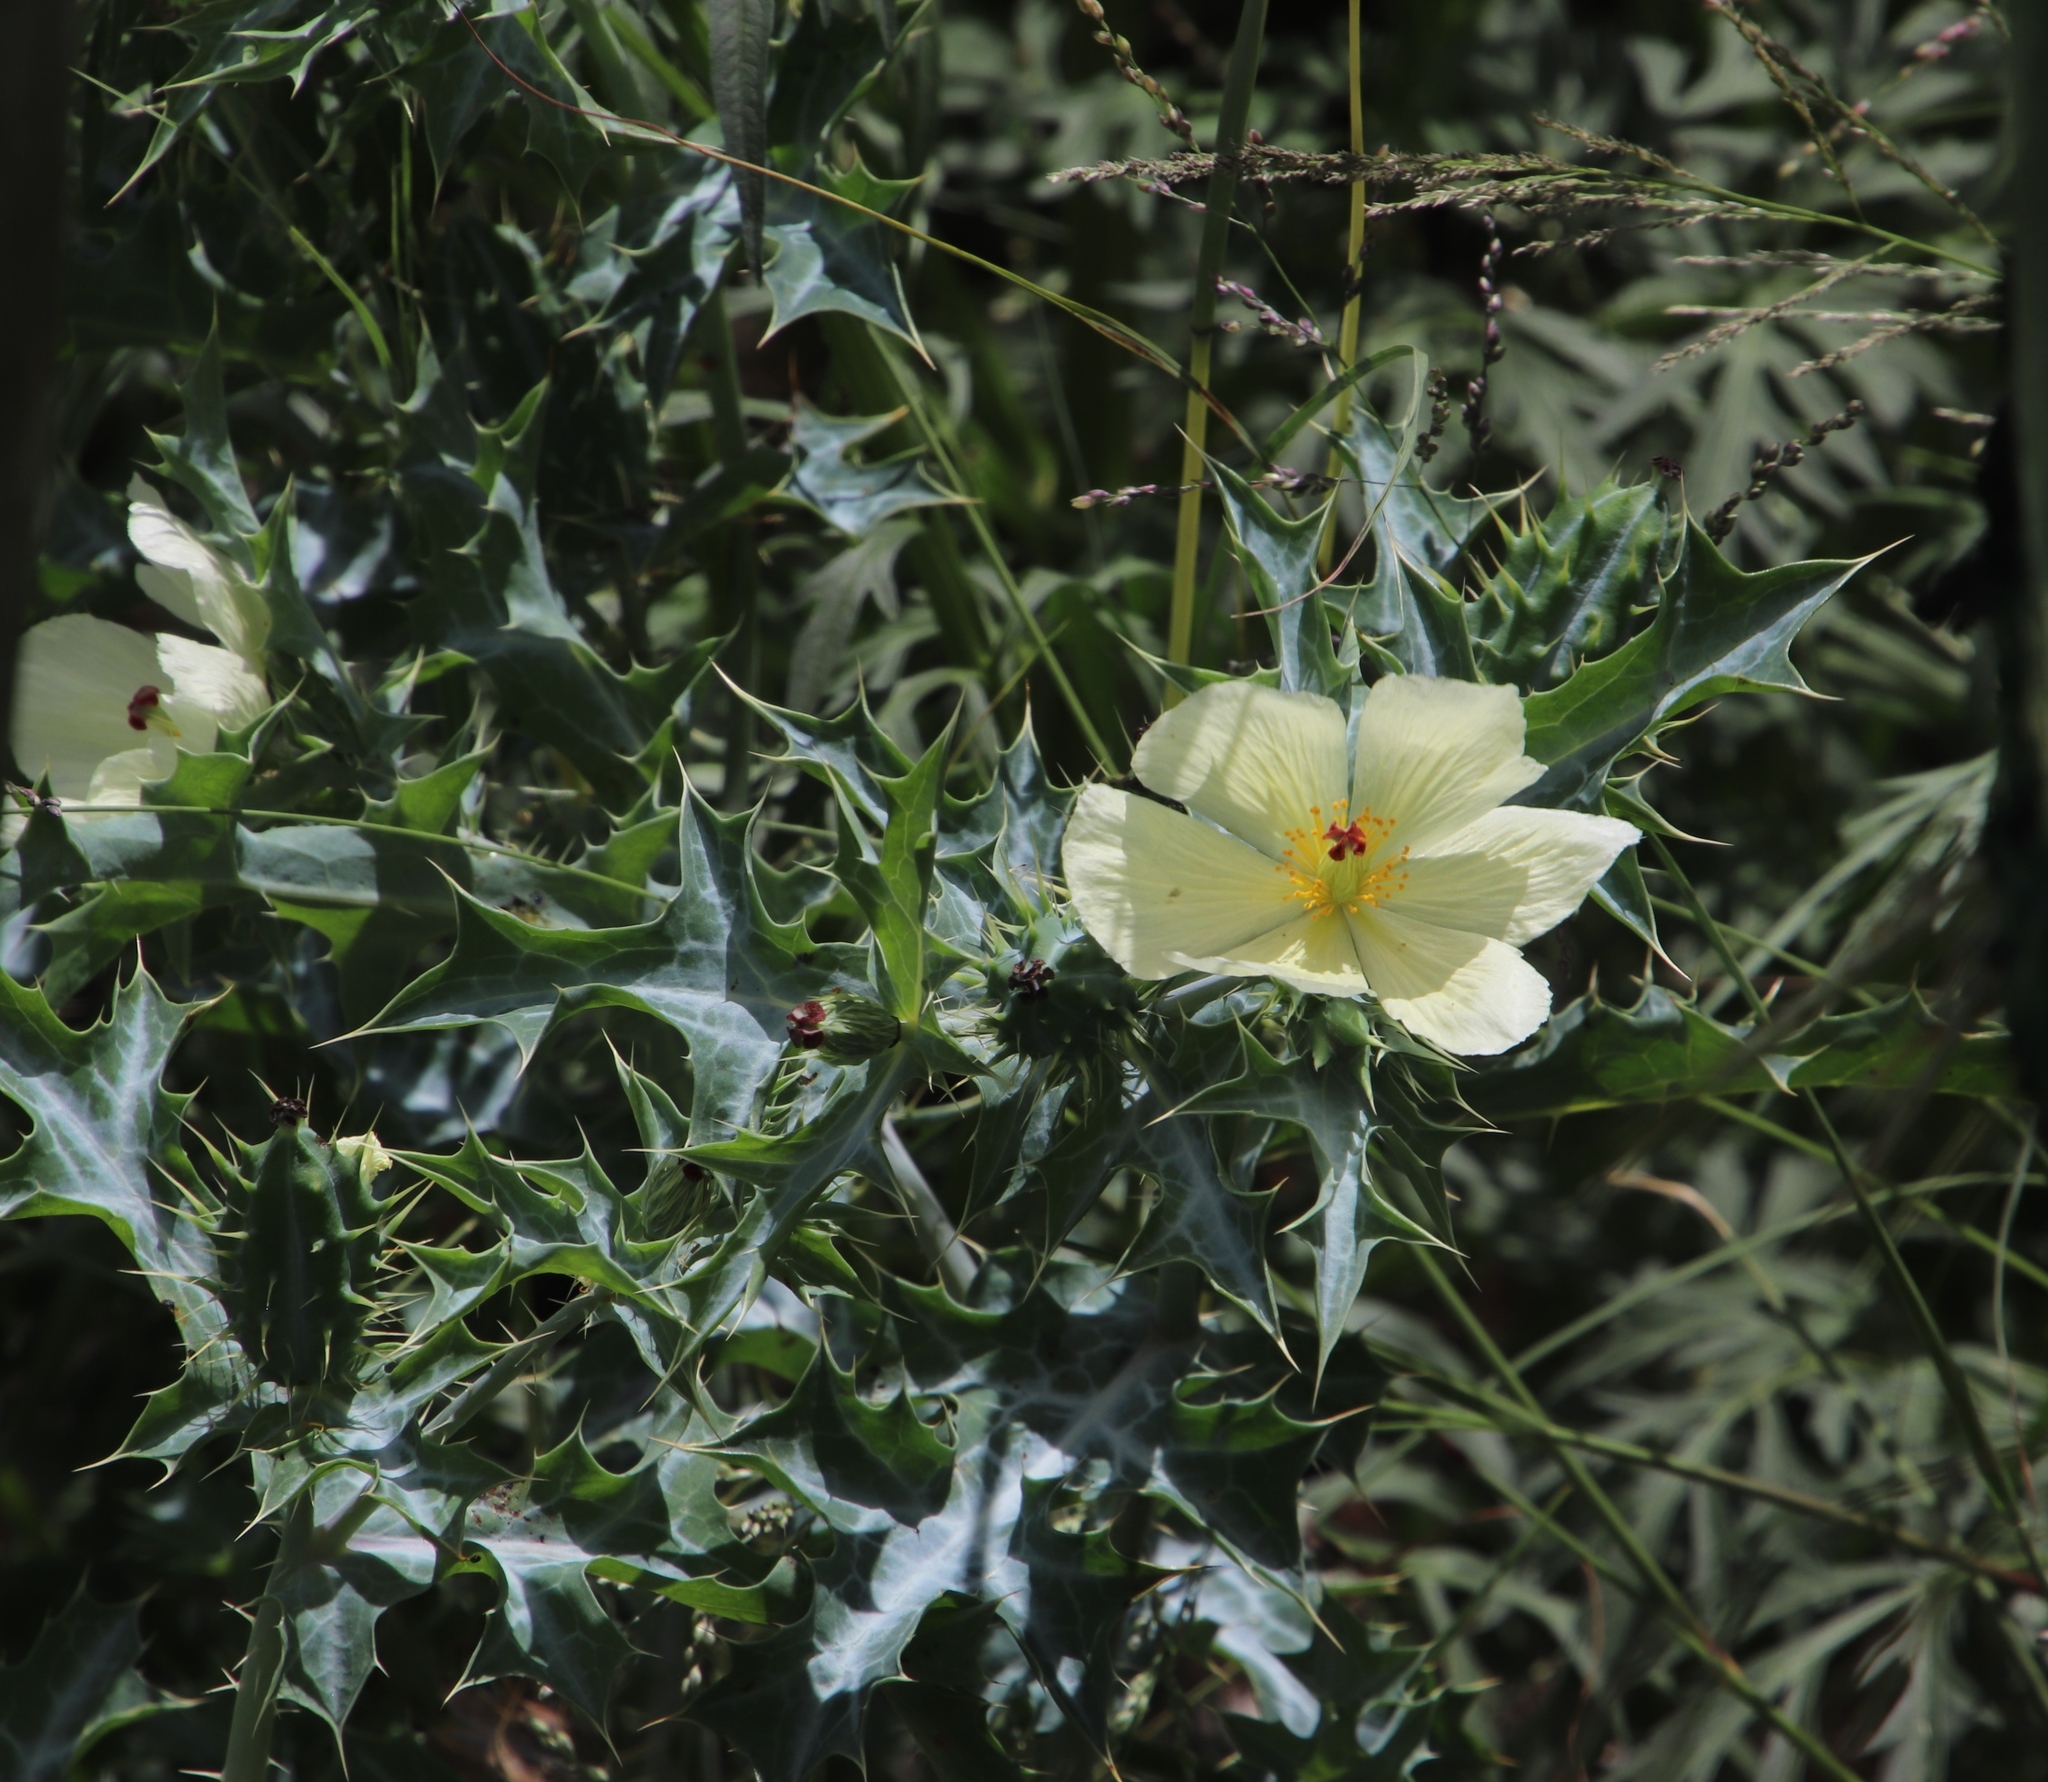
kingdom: Plantae
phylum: Tracheophyta
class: Magnoliopsida
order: Ranunculales
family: Papaveraceae
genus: Argemone
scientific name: Argemone ochroleuca
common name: White-flower mexican-poppy
